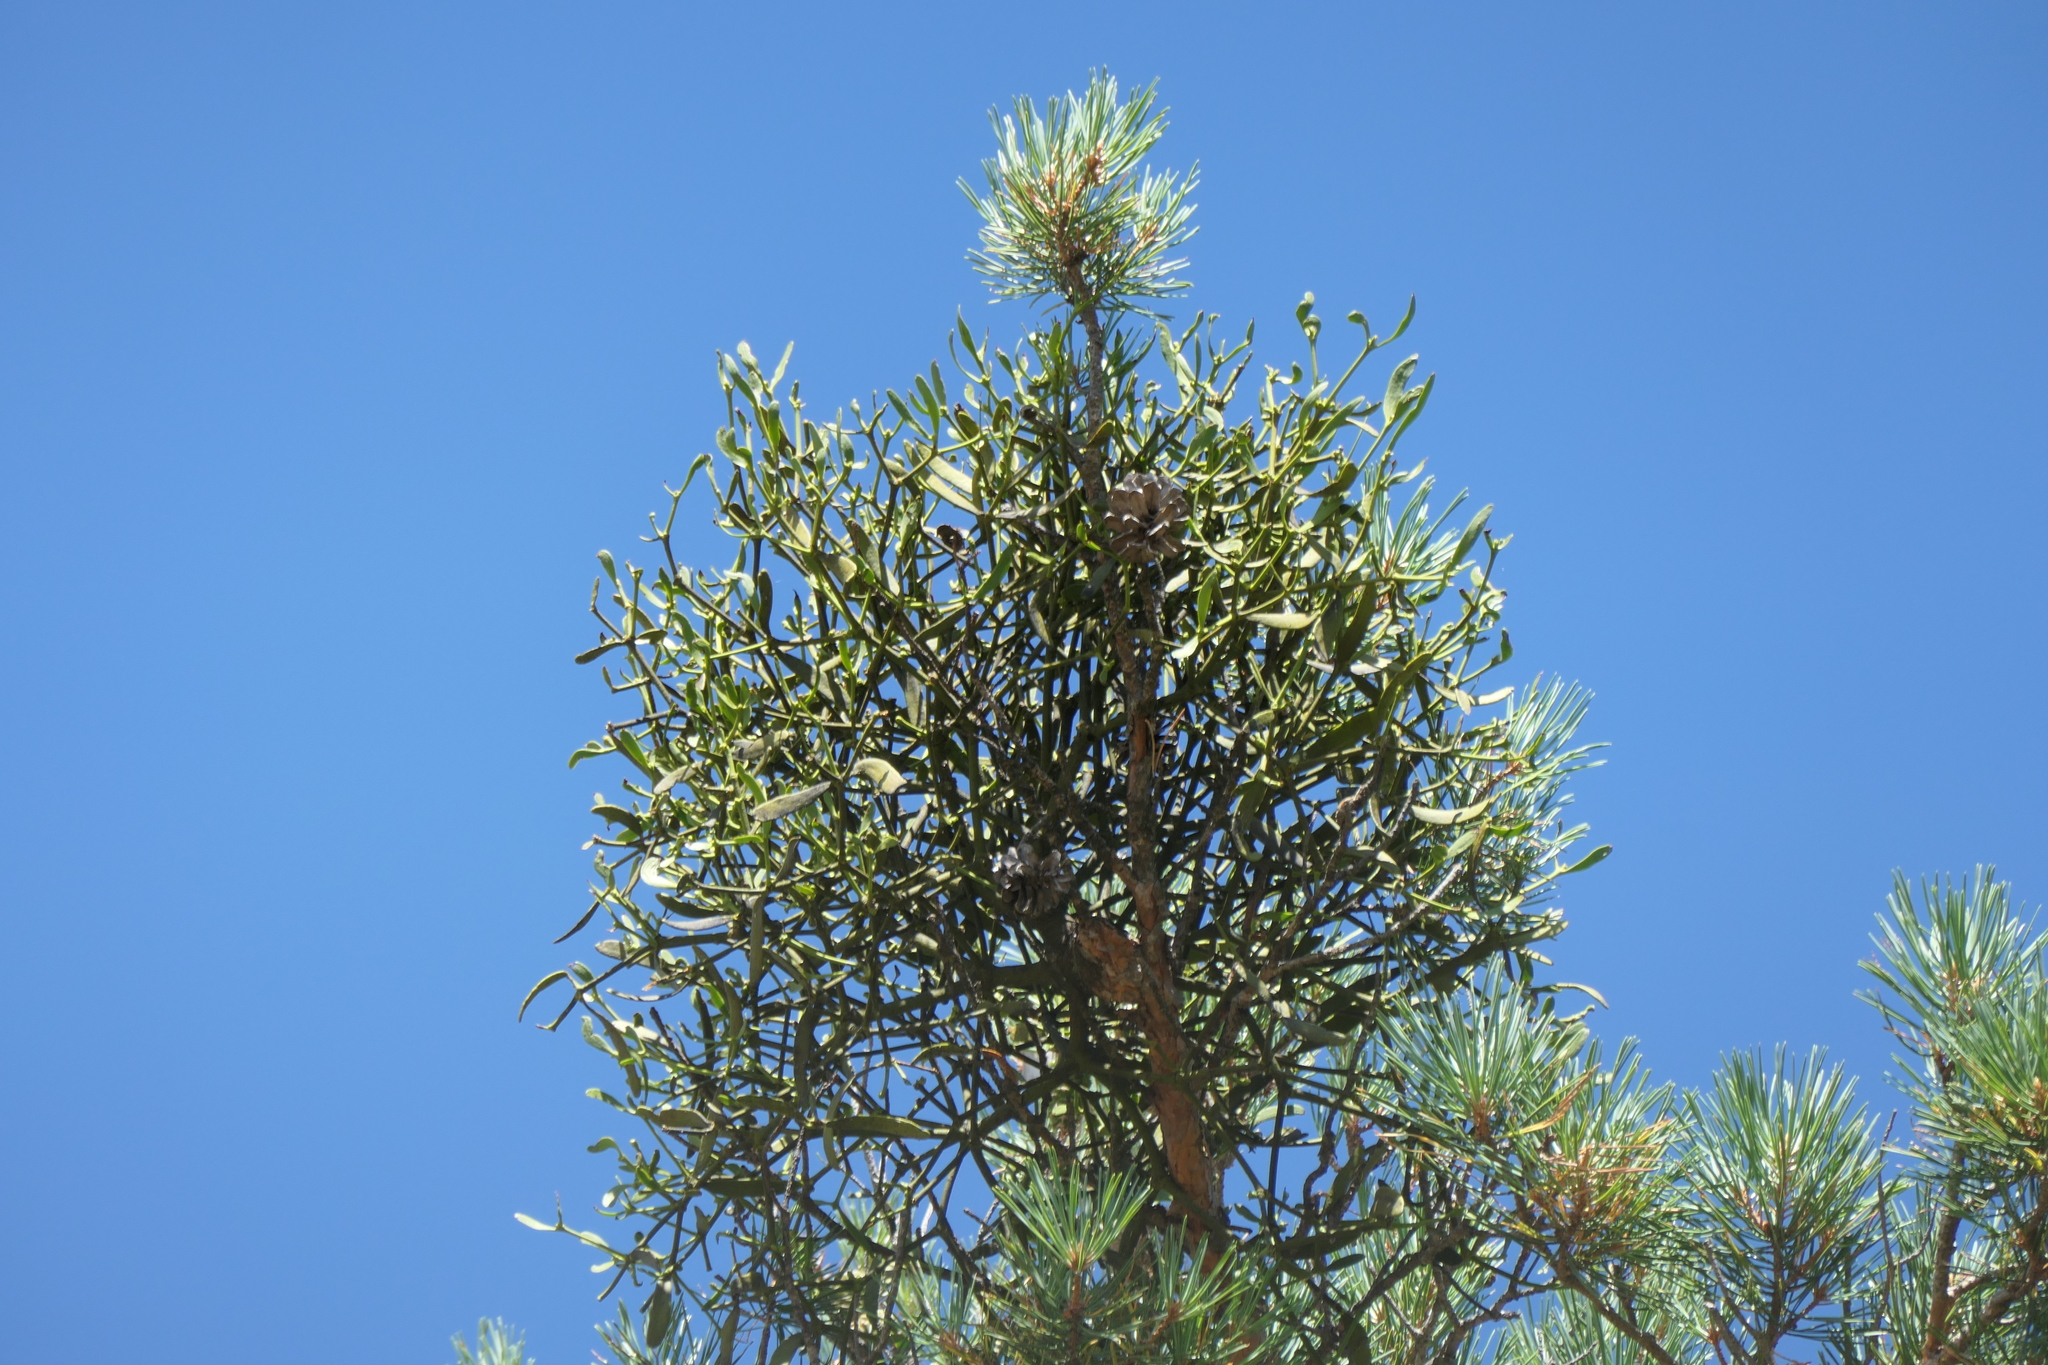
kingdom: Plantae
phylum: Tracheophyta
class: Magnoliopsida
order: Santalales
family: Viscaceae
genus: Viscum
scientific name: Viscum album
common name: Mistletoe
